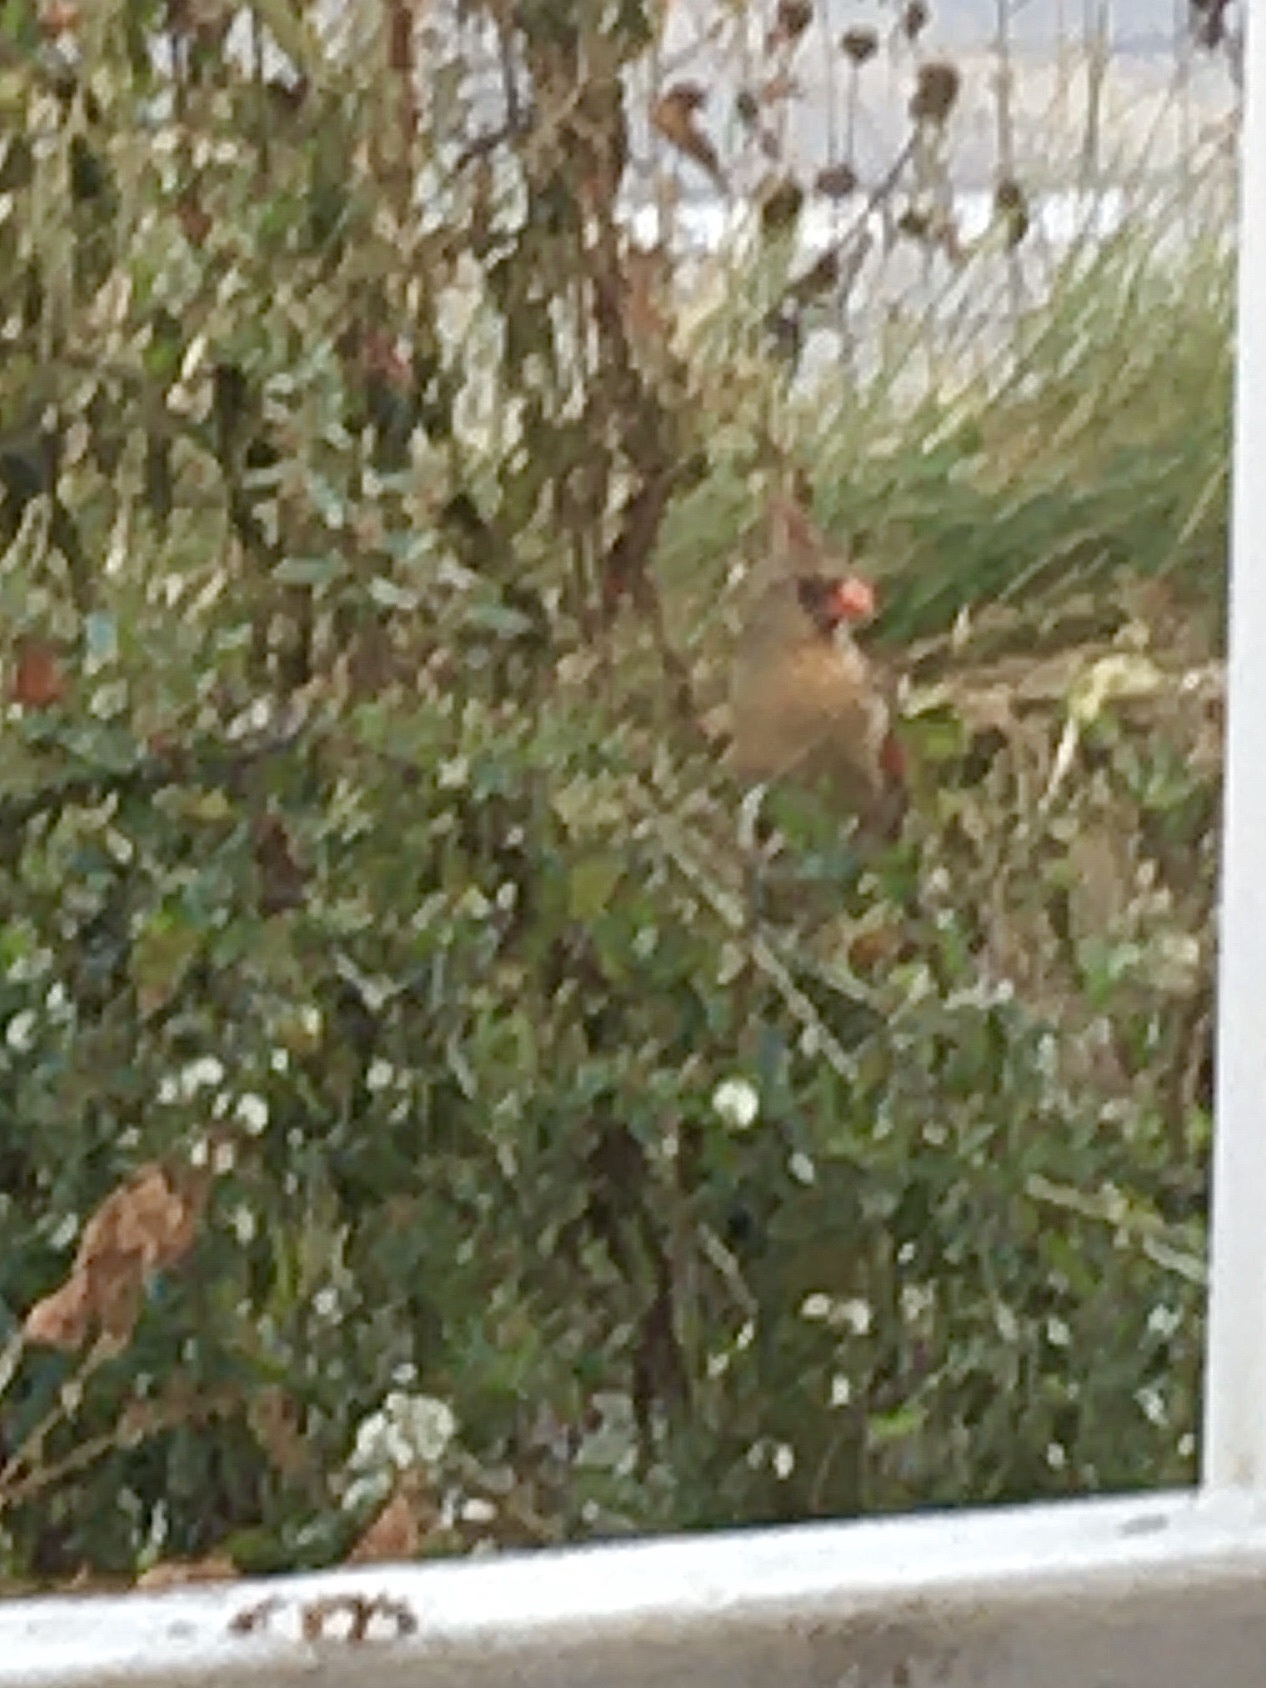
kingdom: Animalia
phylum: Chordata
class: Aves
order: Passeriformes
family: Cardinalidae
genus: Cardinalis
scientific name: Cardinalis cardinalis
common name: Northern cardinal
